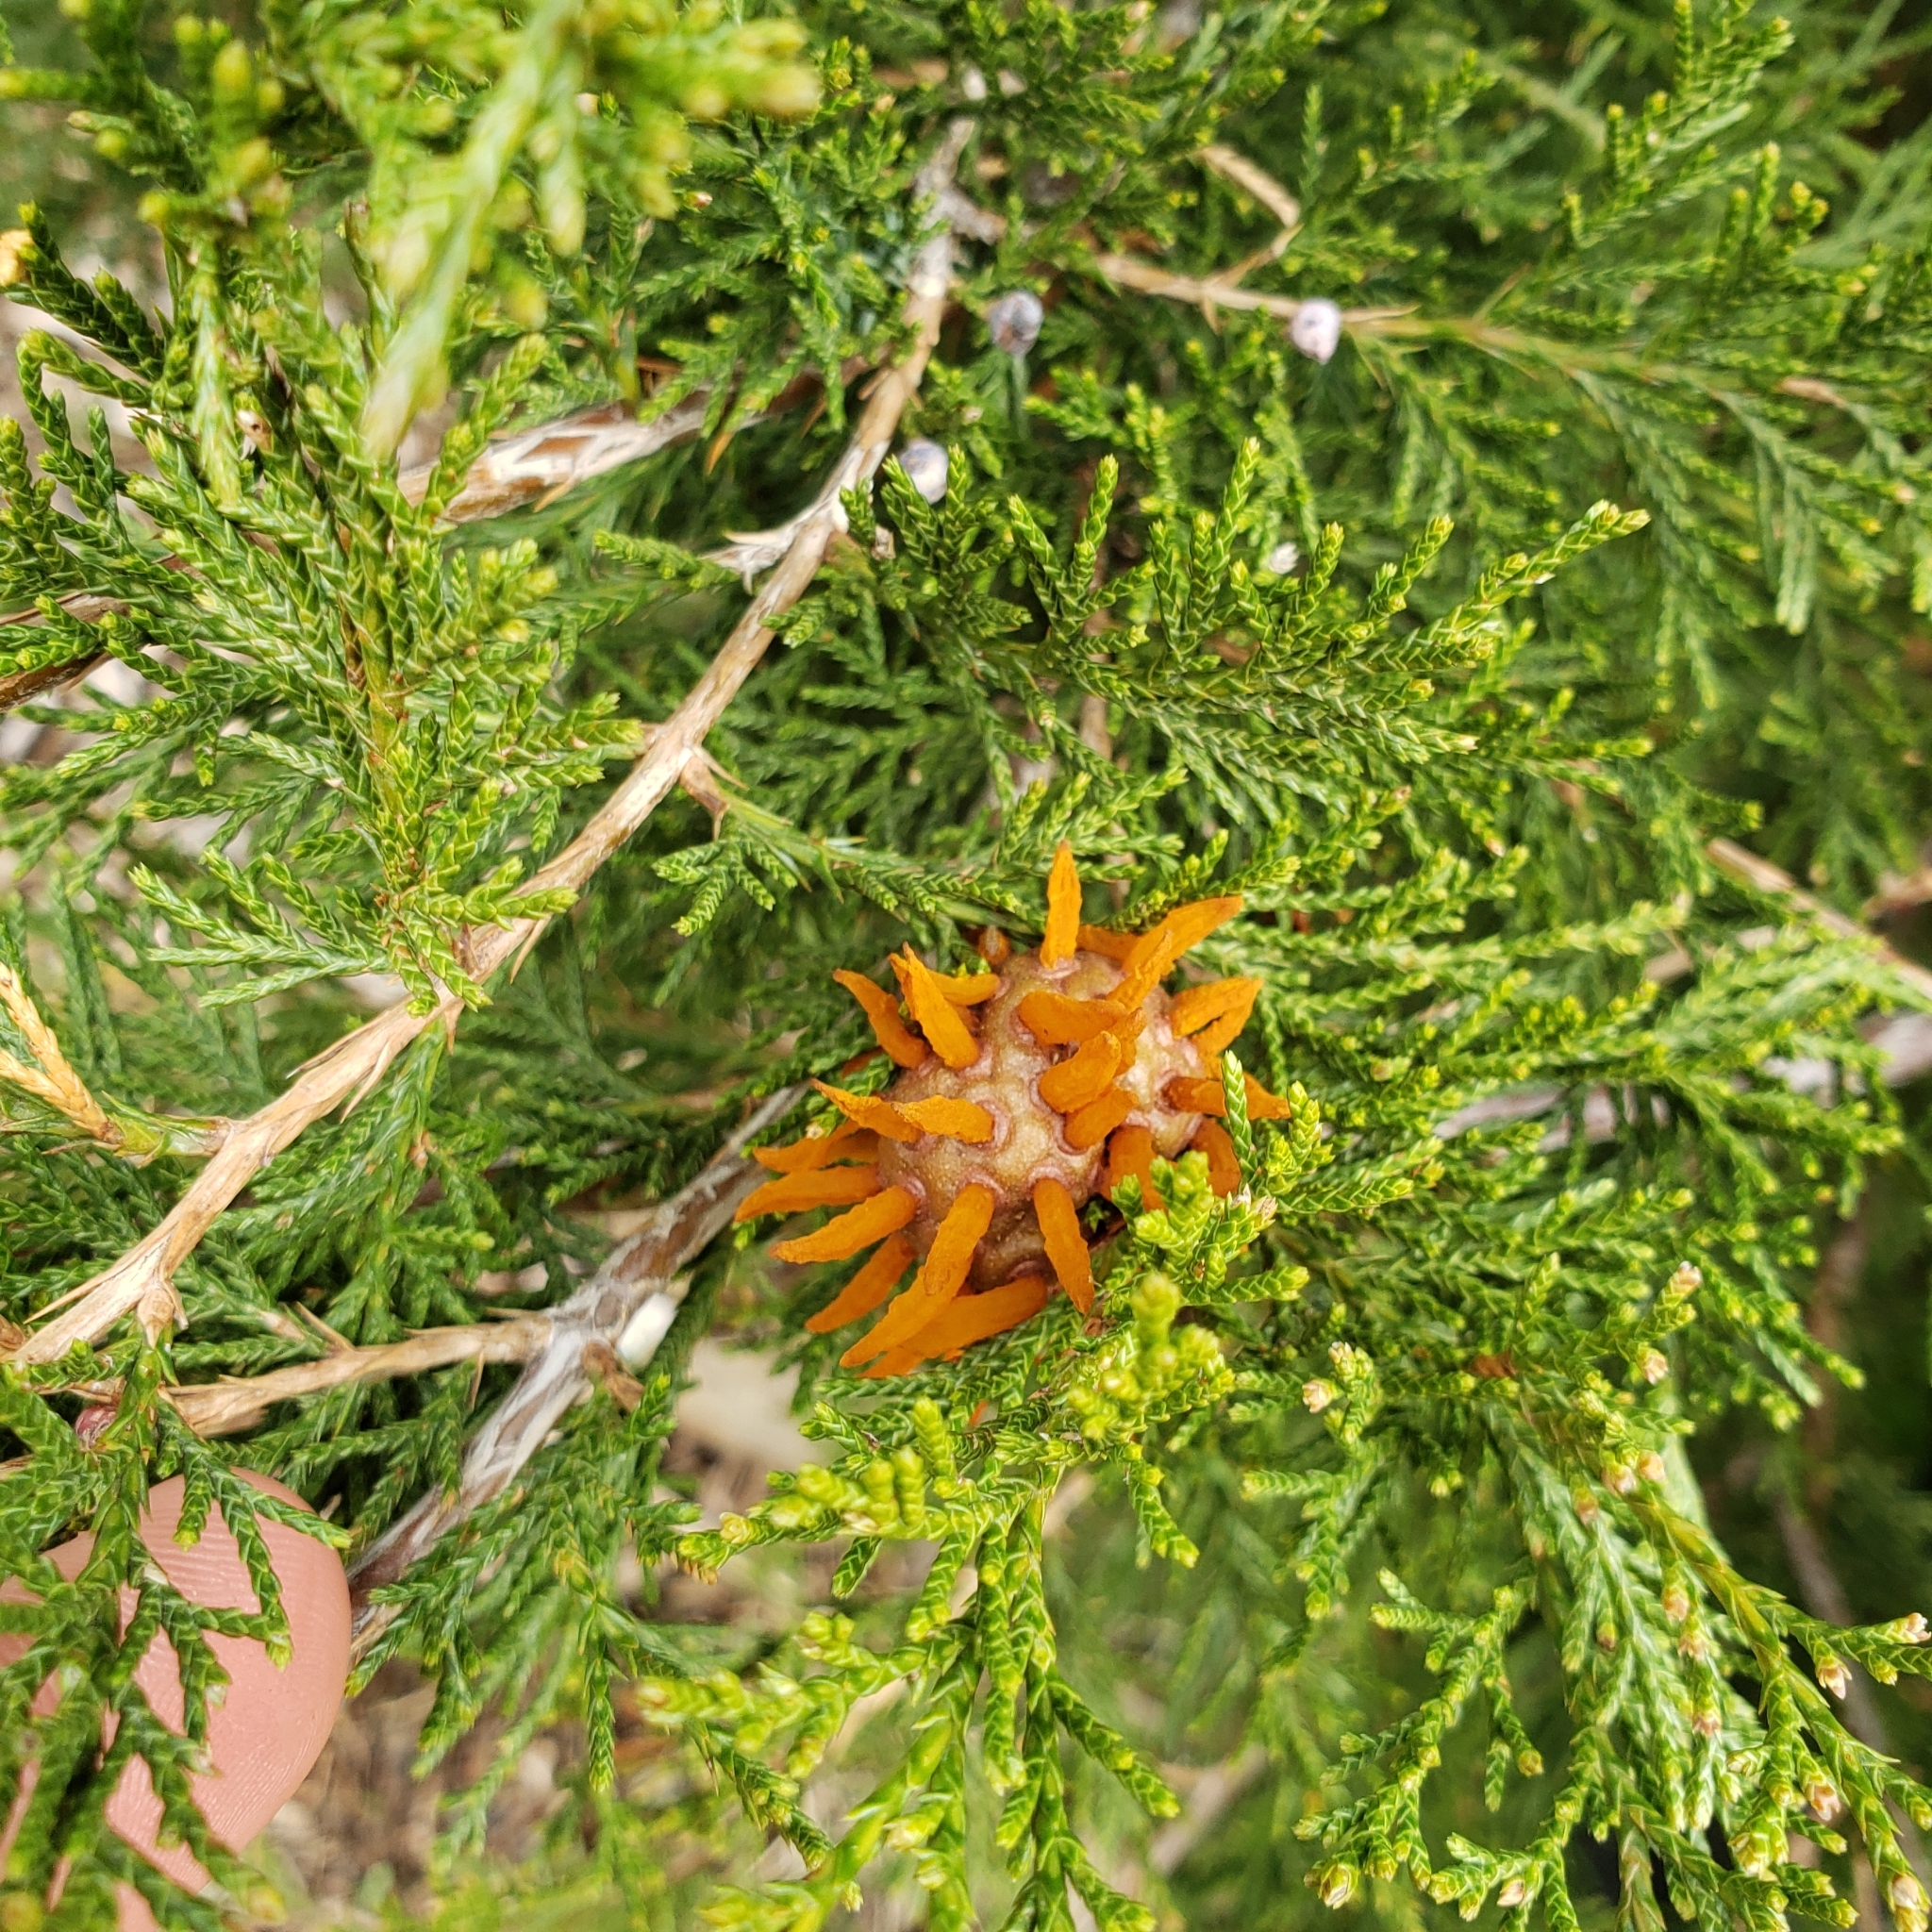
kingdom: Fungi
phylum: Basidiomycota
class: Pucciniomycetes
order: Pucciniales
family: Gymnosporangiaceae
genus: Gymnosporangium
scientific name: Gymnosporangium juniperi-virginianae
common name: Juniper-apple rust
